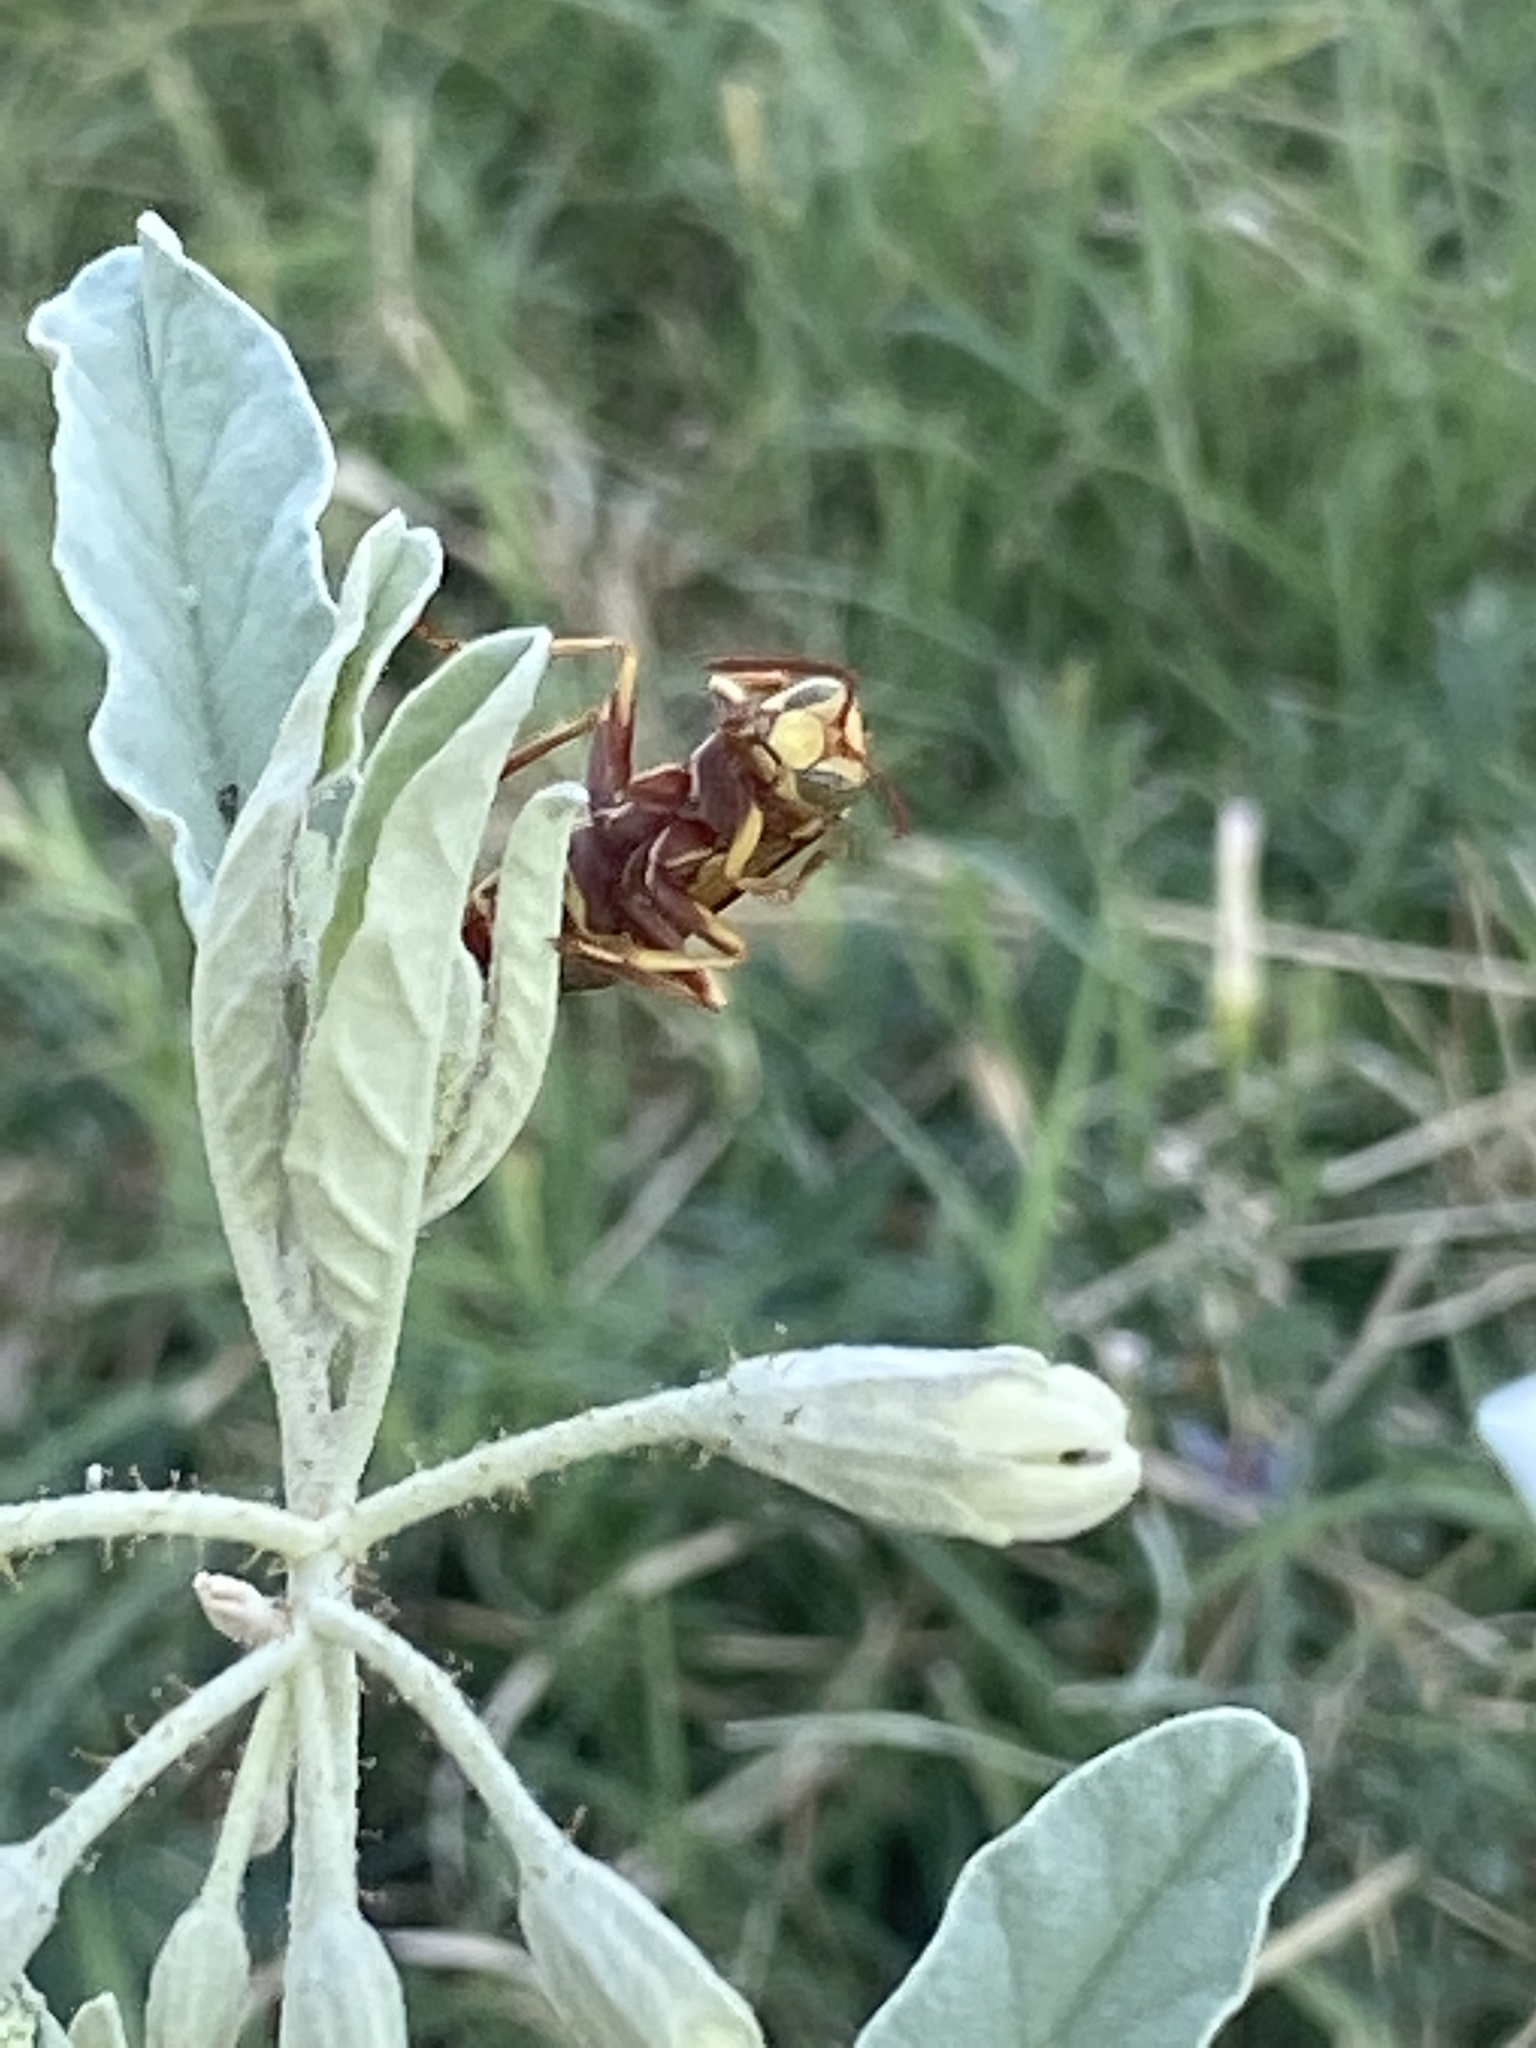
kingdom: Animalia
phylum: Arthropoda
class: Insecta
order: Hymenoptera
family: Eumenidae
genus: Polistes
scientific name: Polistes apachus
